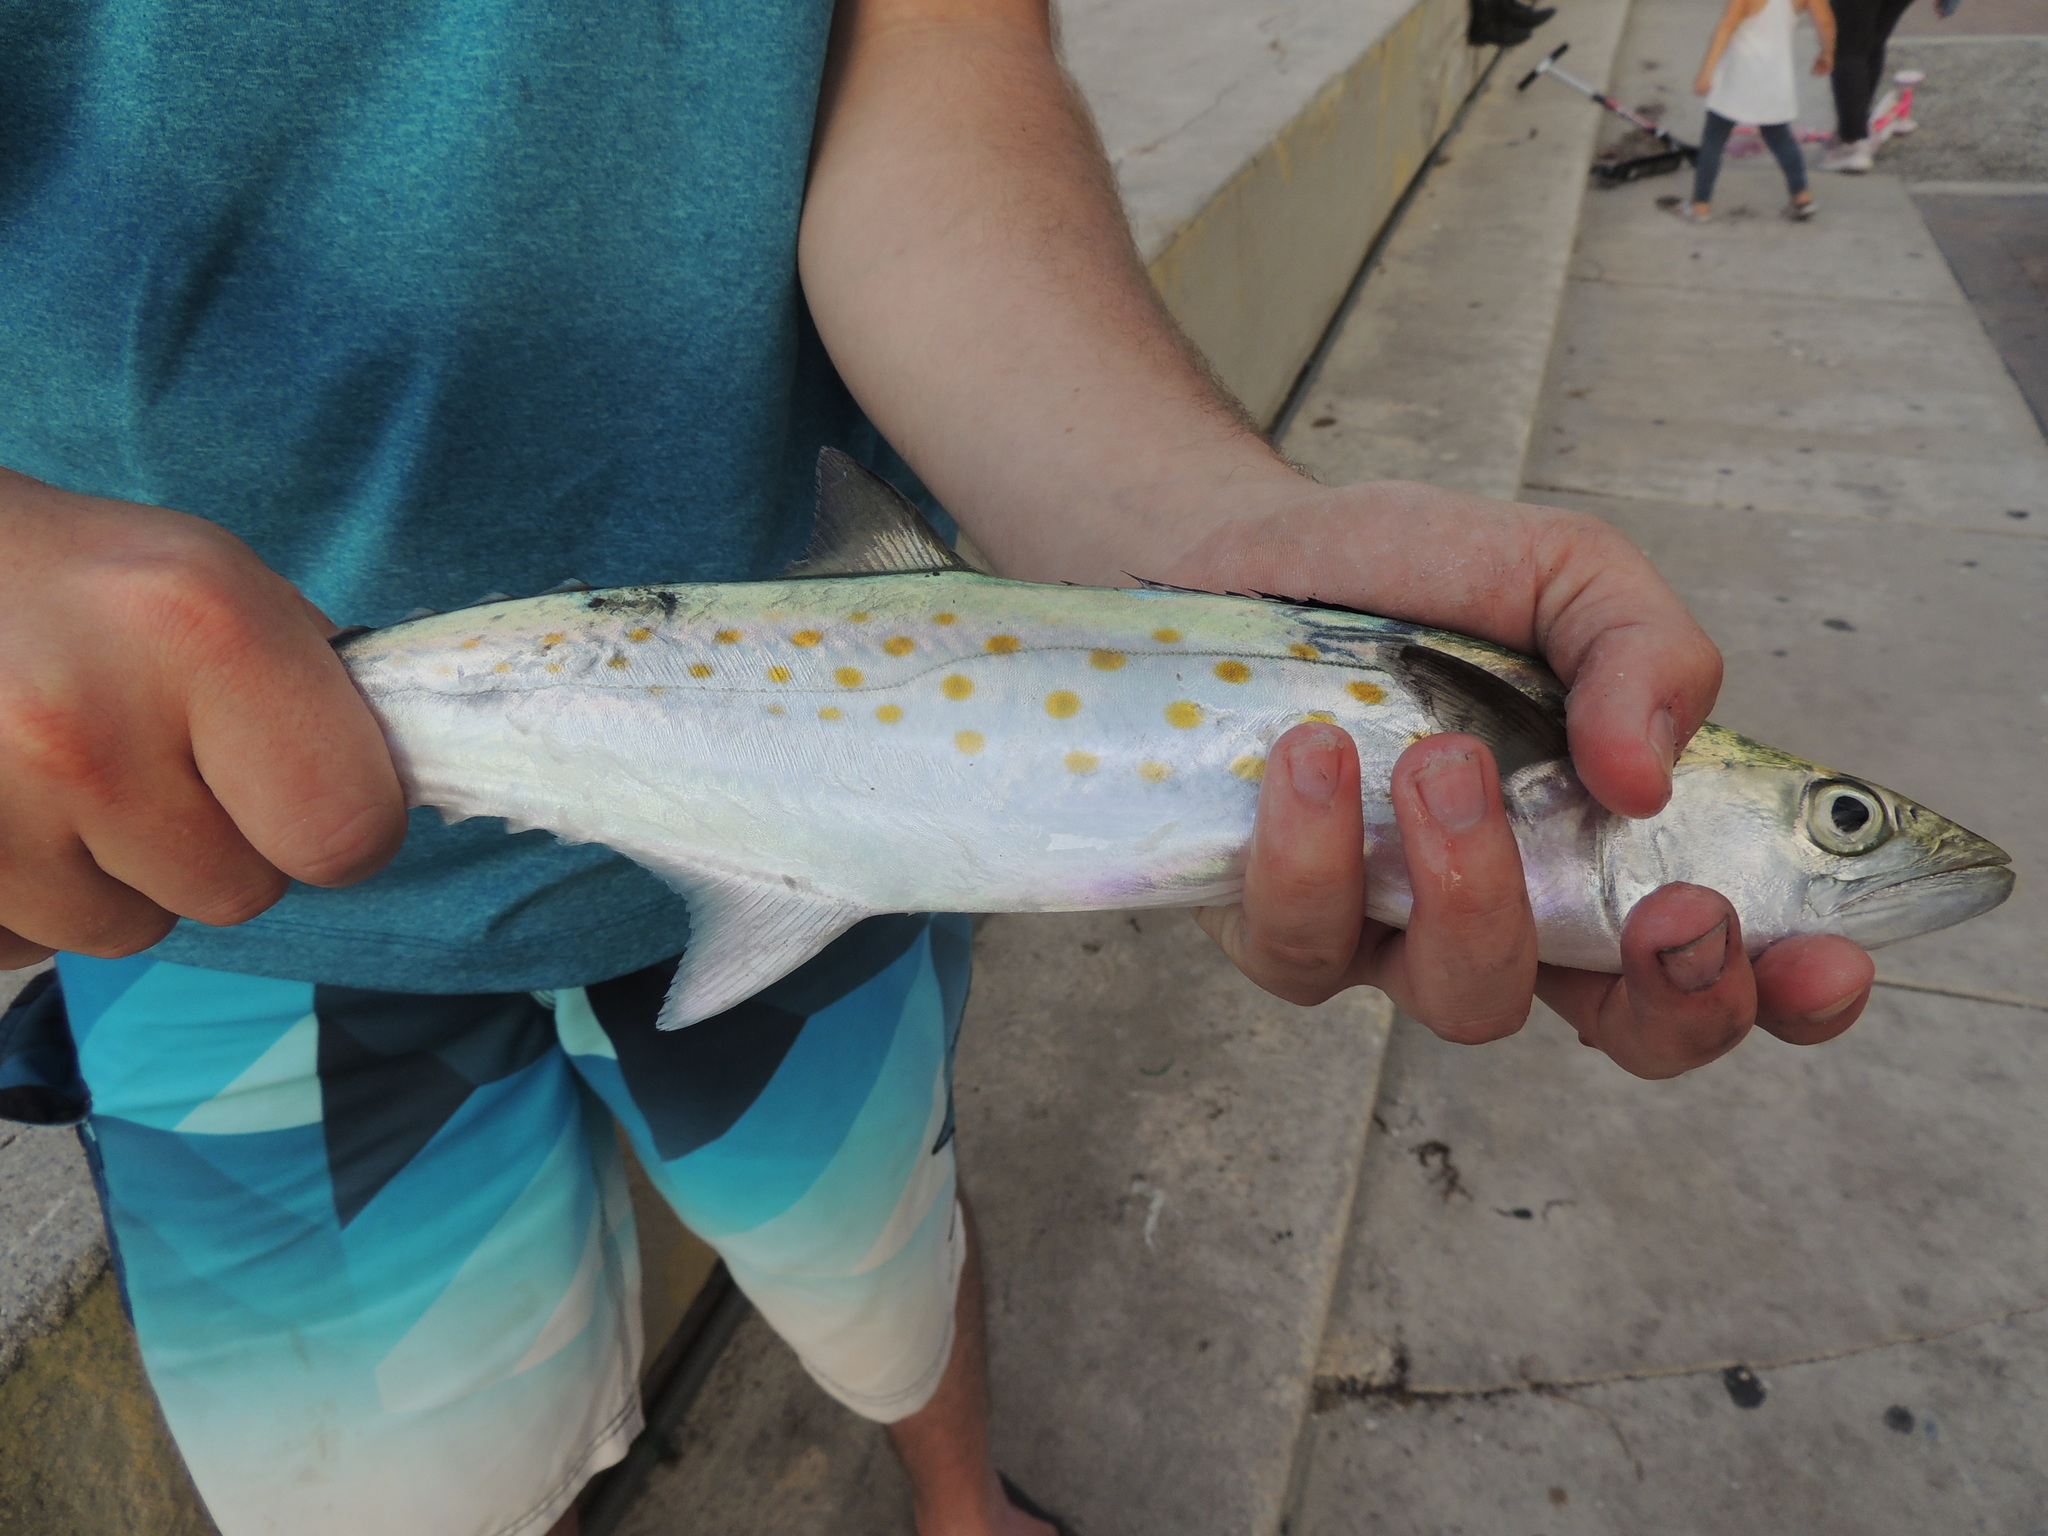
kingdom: Animalia
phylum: Chordata
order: Perciformes
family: Scombridae
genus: Scomberomorus
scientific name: Scomberomorus maculatus
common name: Spanish mackerel
